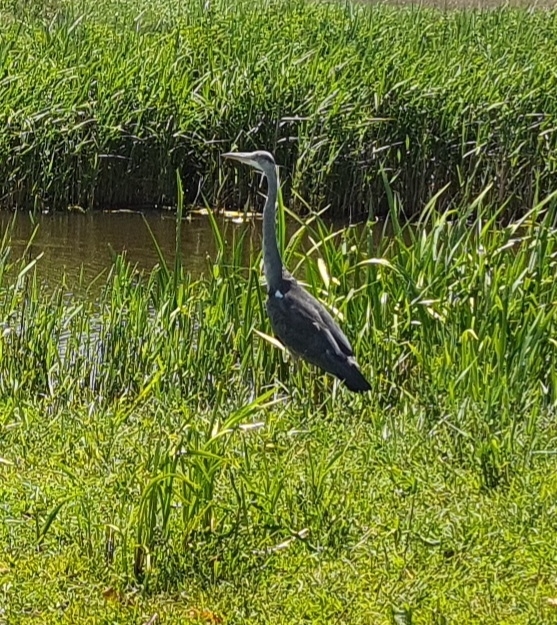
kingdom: Animalia
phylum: Chordata
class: Aves
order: Pelecaniformes
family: Ardeidae
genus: Ardea
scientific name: Ardea cinerea
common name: Grey heron
